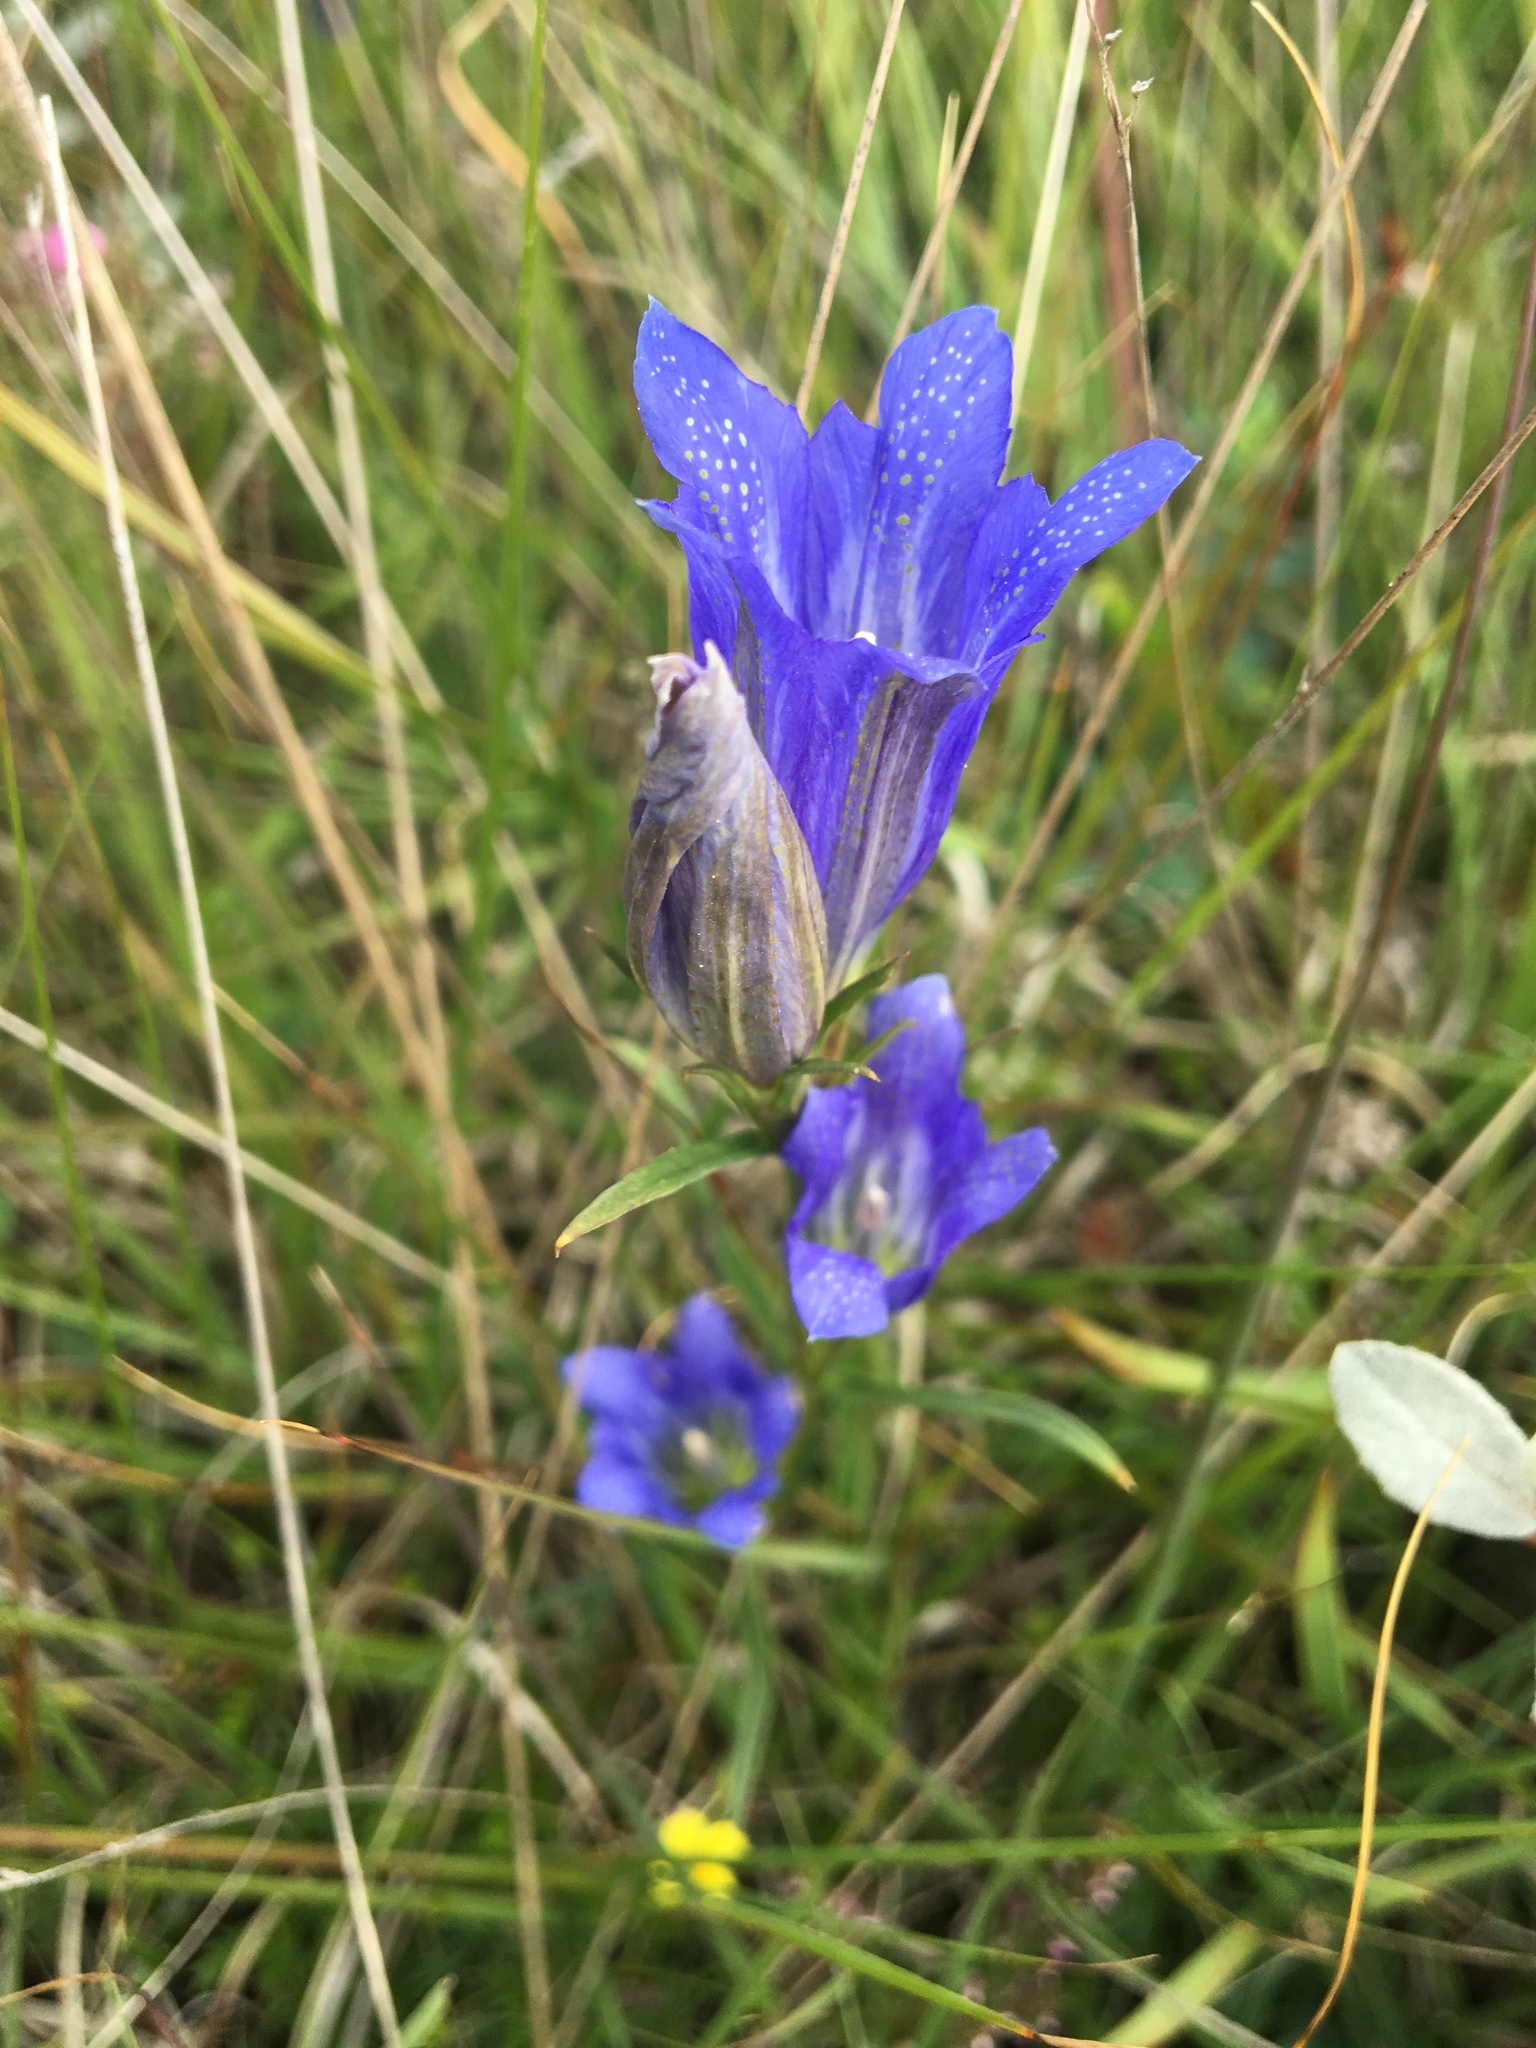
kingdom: Plantae
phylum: Tracheophyta
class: Magnoliopsida
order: Gentianales
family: Gentianaceae
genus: Gentiana
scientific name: Gentiana pneumonanthe
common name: Marsh gentian
